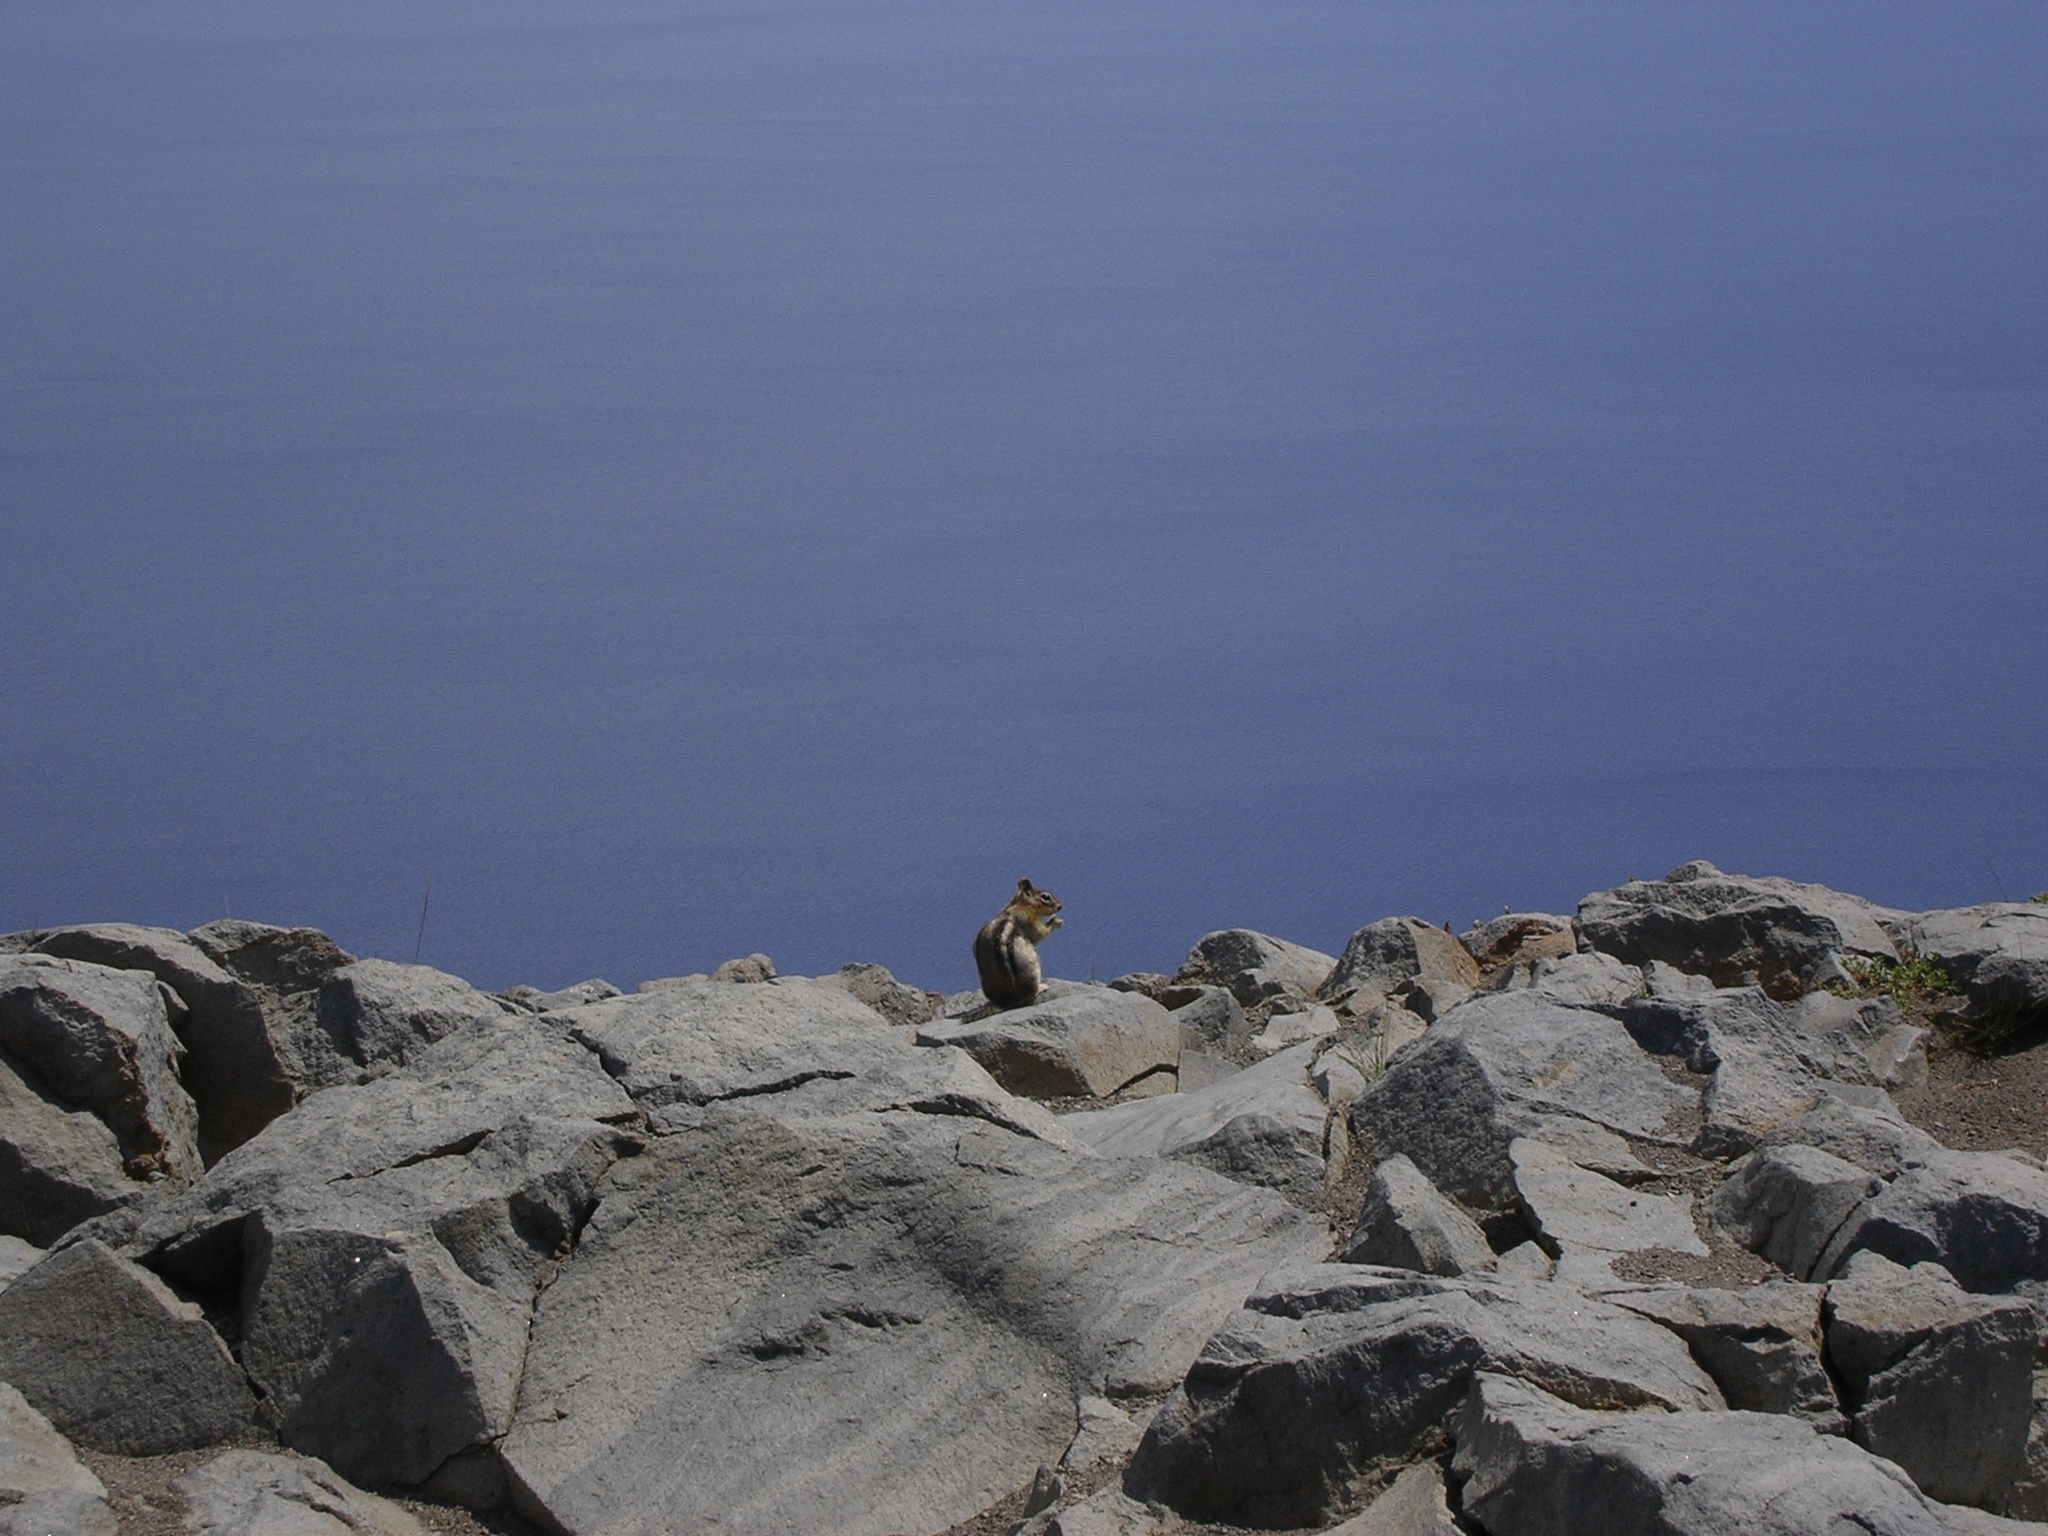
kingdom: Animalia
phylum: Chordata
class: Mammalia
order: Rodentia
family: Sciuridae
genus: Callospermophilus
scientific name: Callospermophilus lateralis
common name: Golden-mantled ground squirrel
